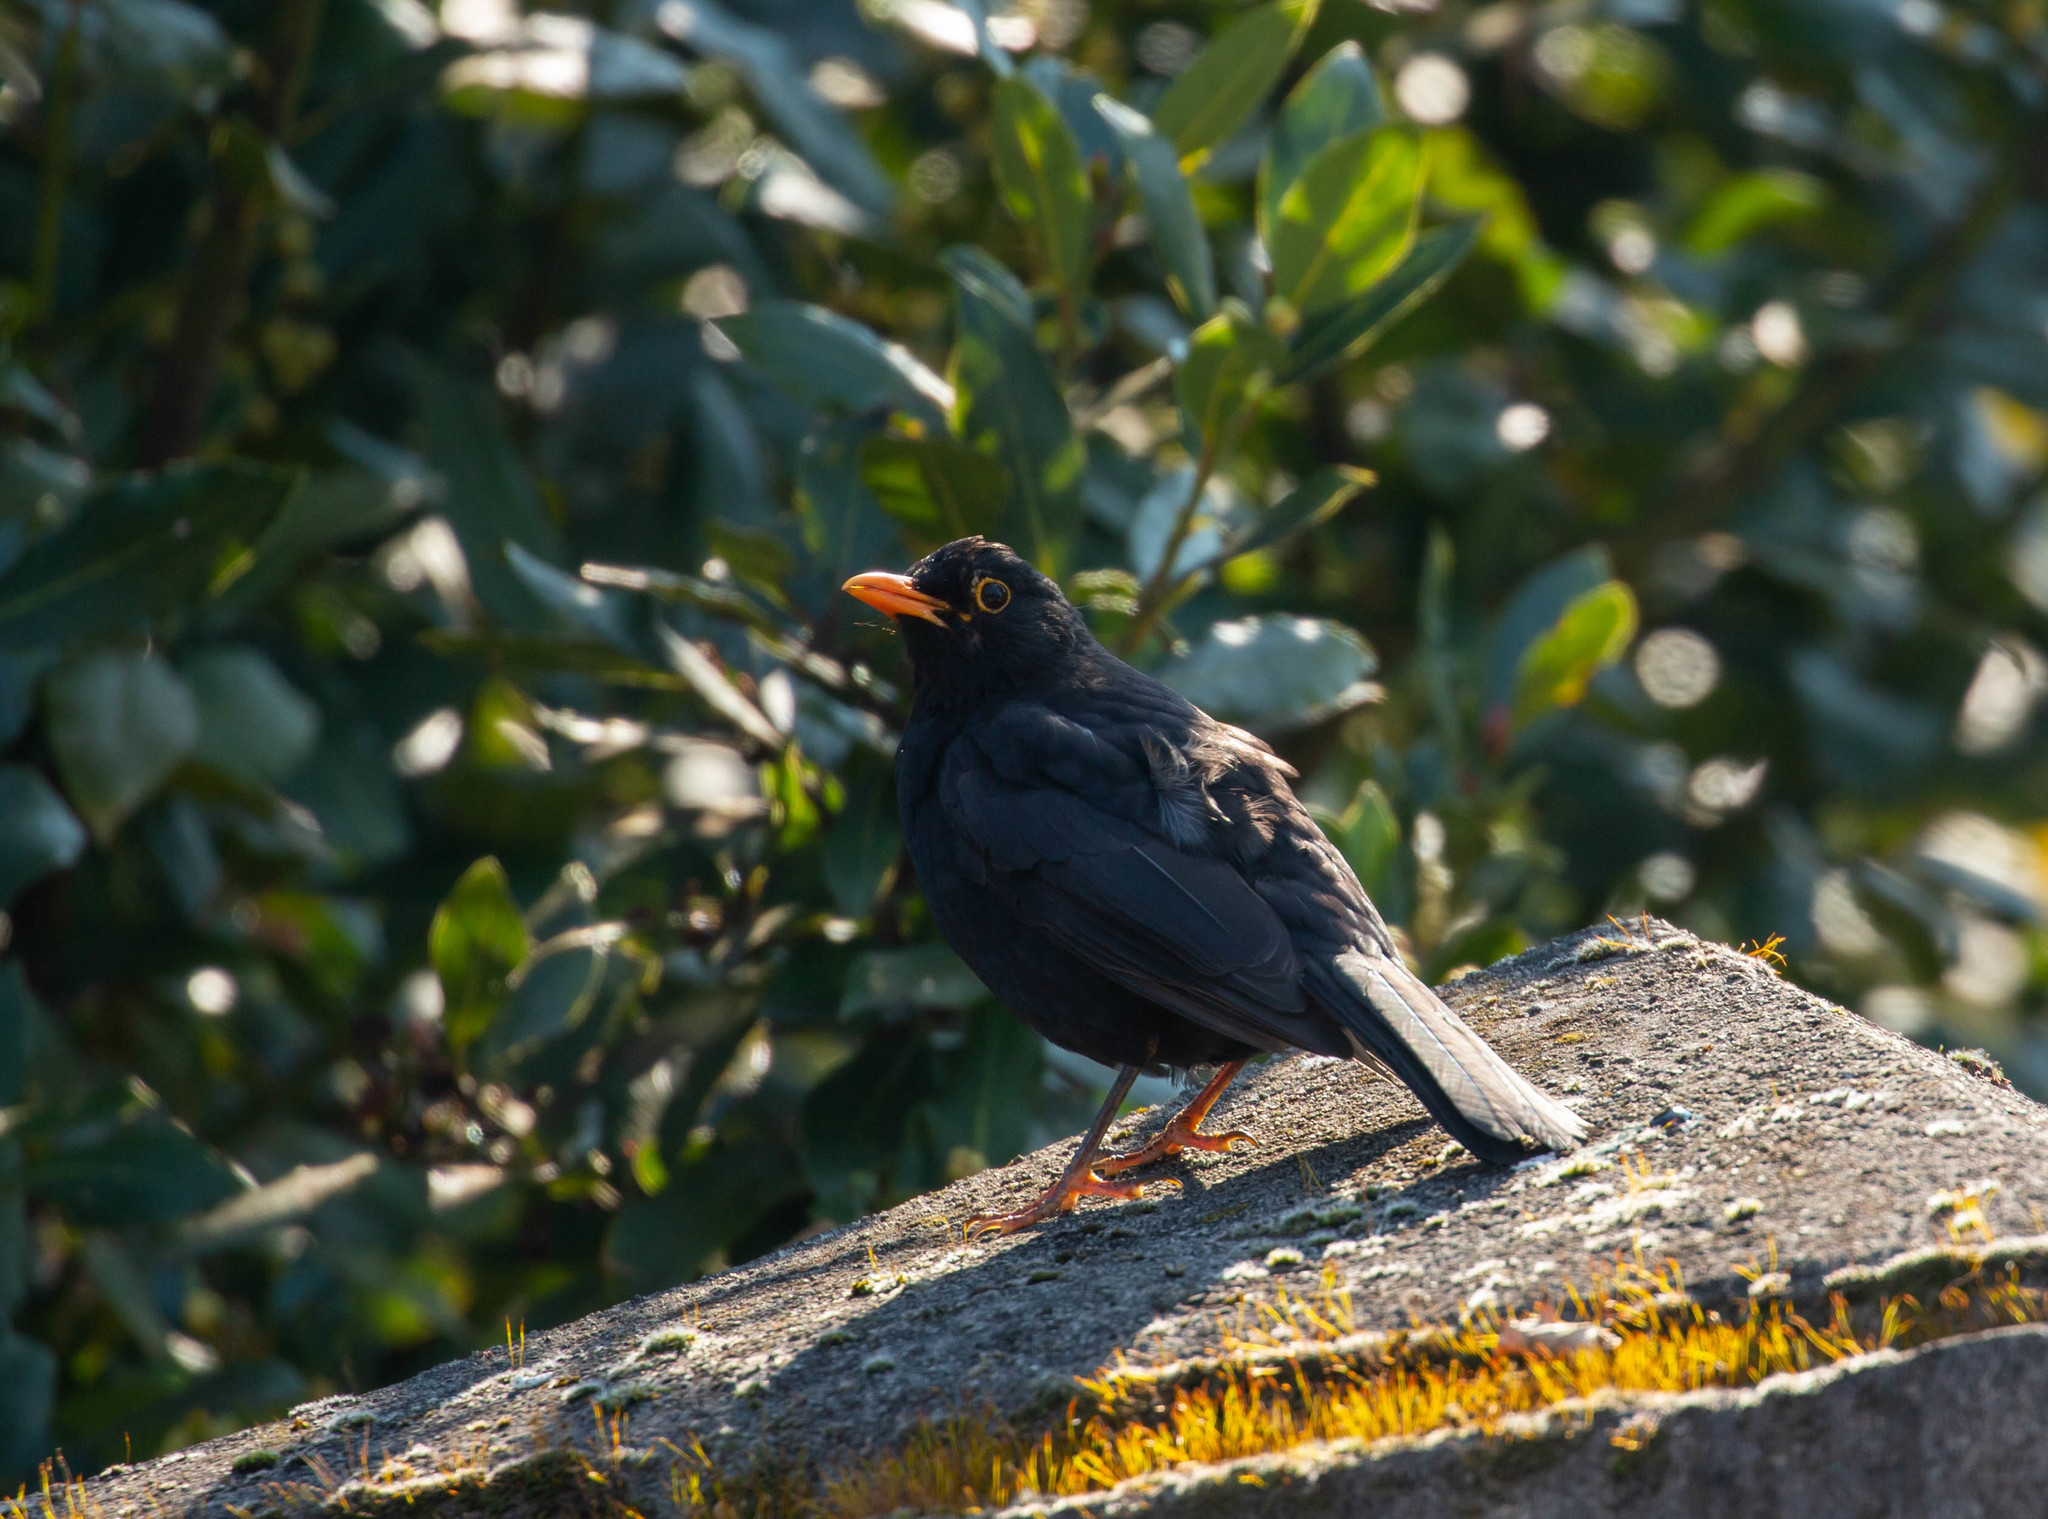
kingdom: Animalia
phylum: Chordata
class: Aves
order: Passeriformes
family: Turdidae
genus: Turdus
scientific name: Turdus merula
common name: Common blackbird
